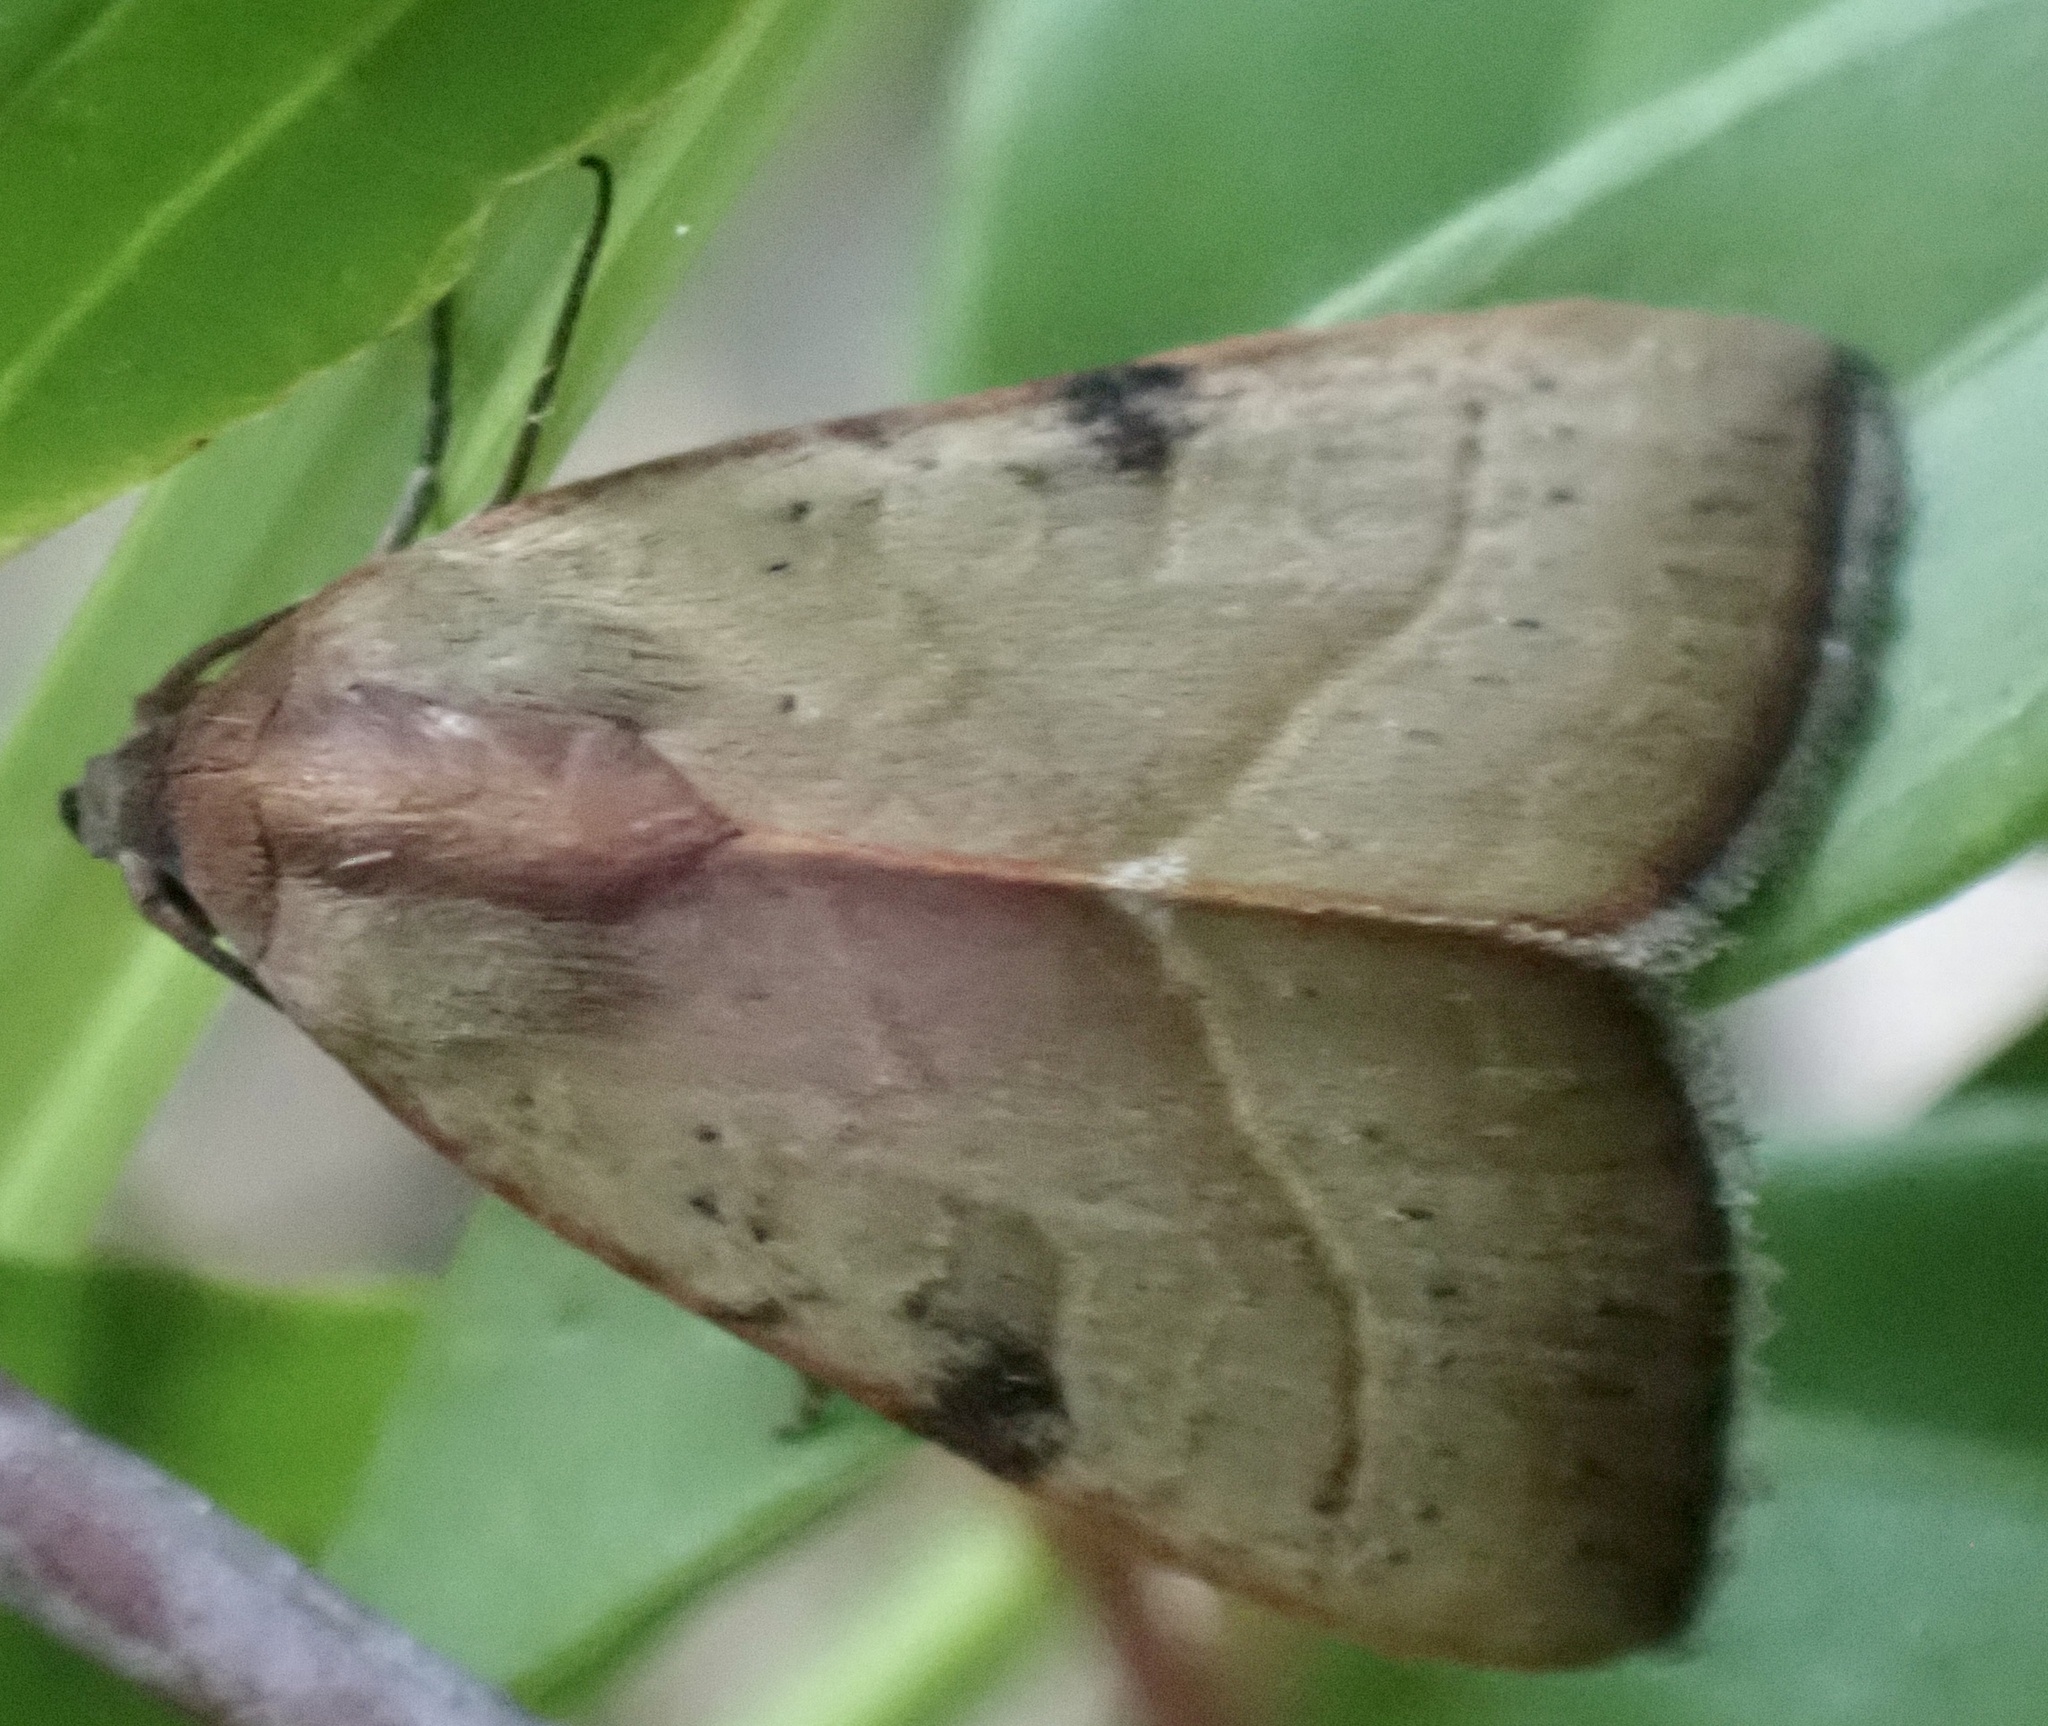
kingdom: Animalia
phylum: Arthropoda
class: Insecta
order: Lepidoptera
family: Noctuidae
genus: Galgula
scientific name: Galgula partita
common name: Wedgeling
